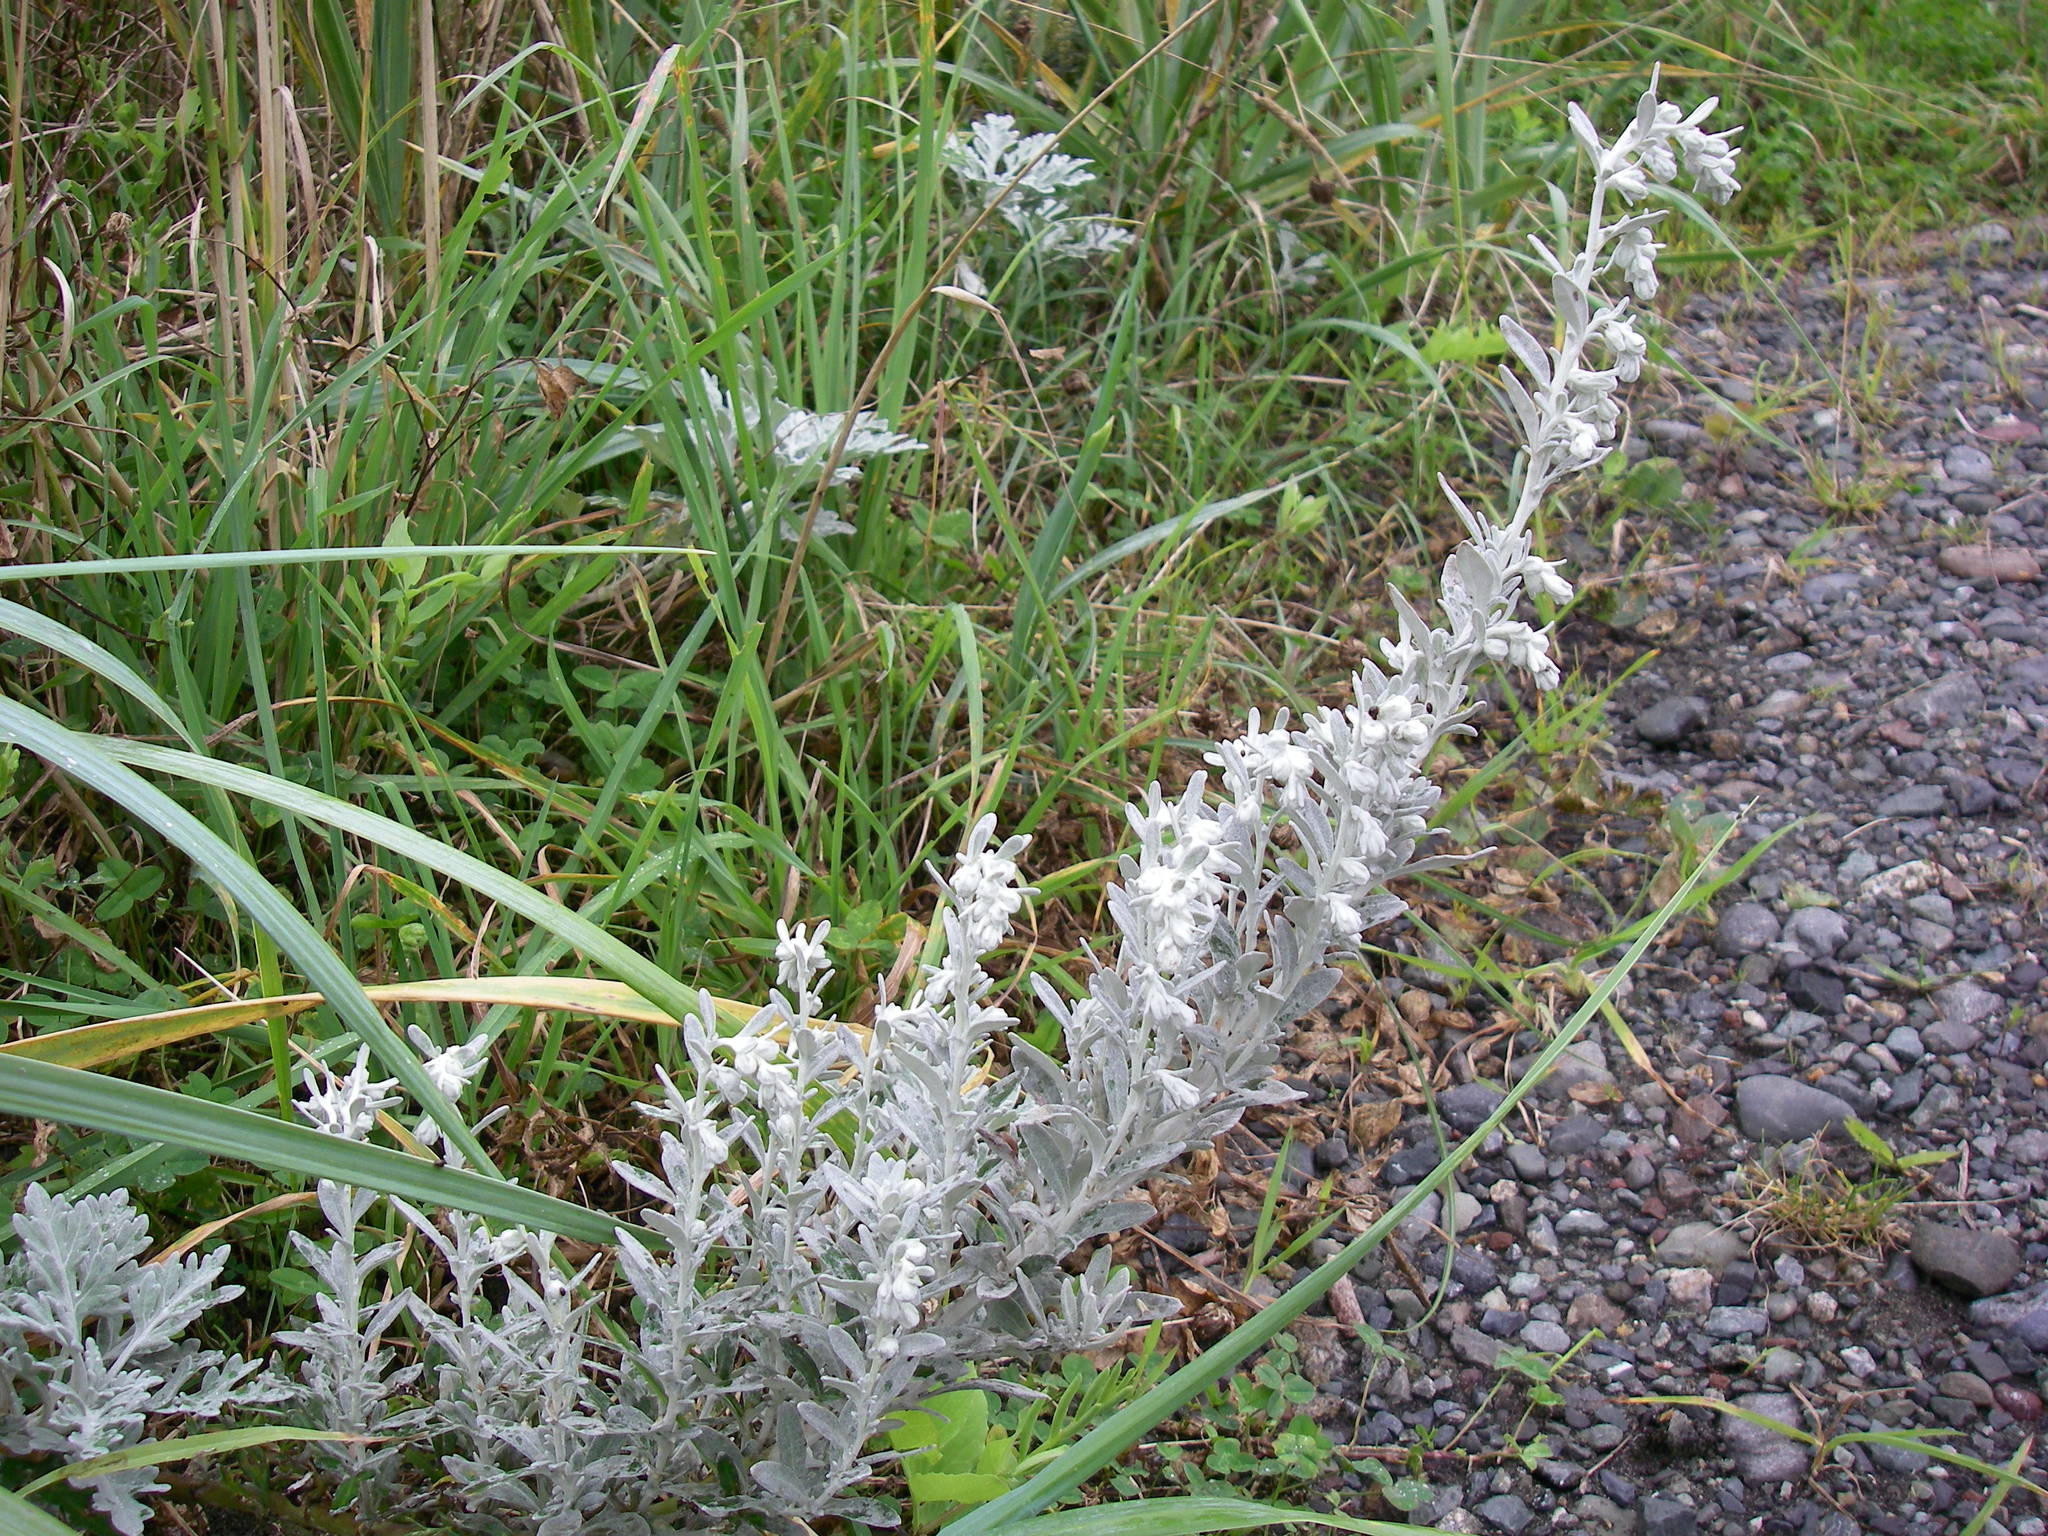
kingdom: Plantae
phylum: Tracheophyta
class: Magnoliopsida
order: Asterales
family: Asteraceae
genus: Artemisia
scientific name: Artemisia stelleriana
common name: Beach wormwood
